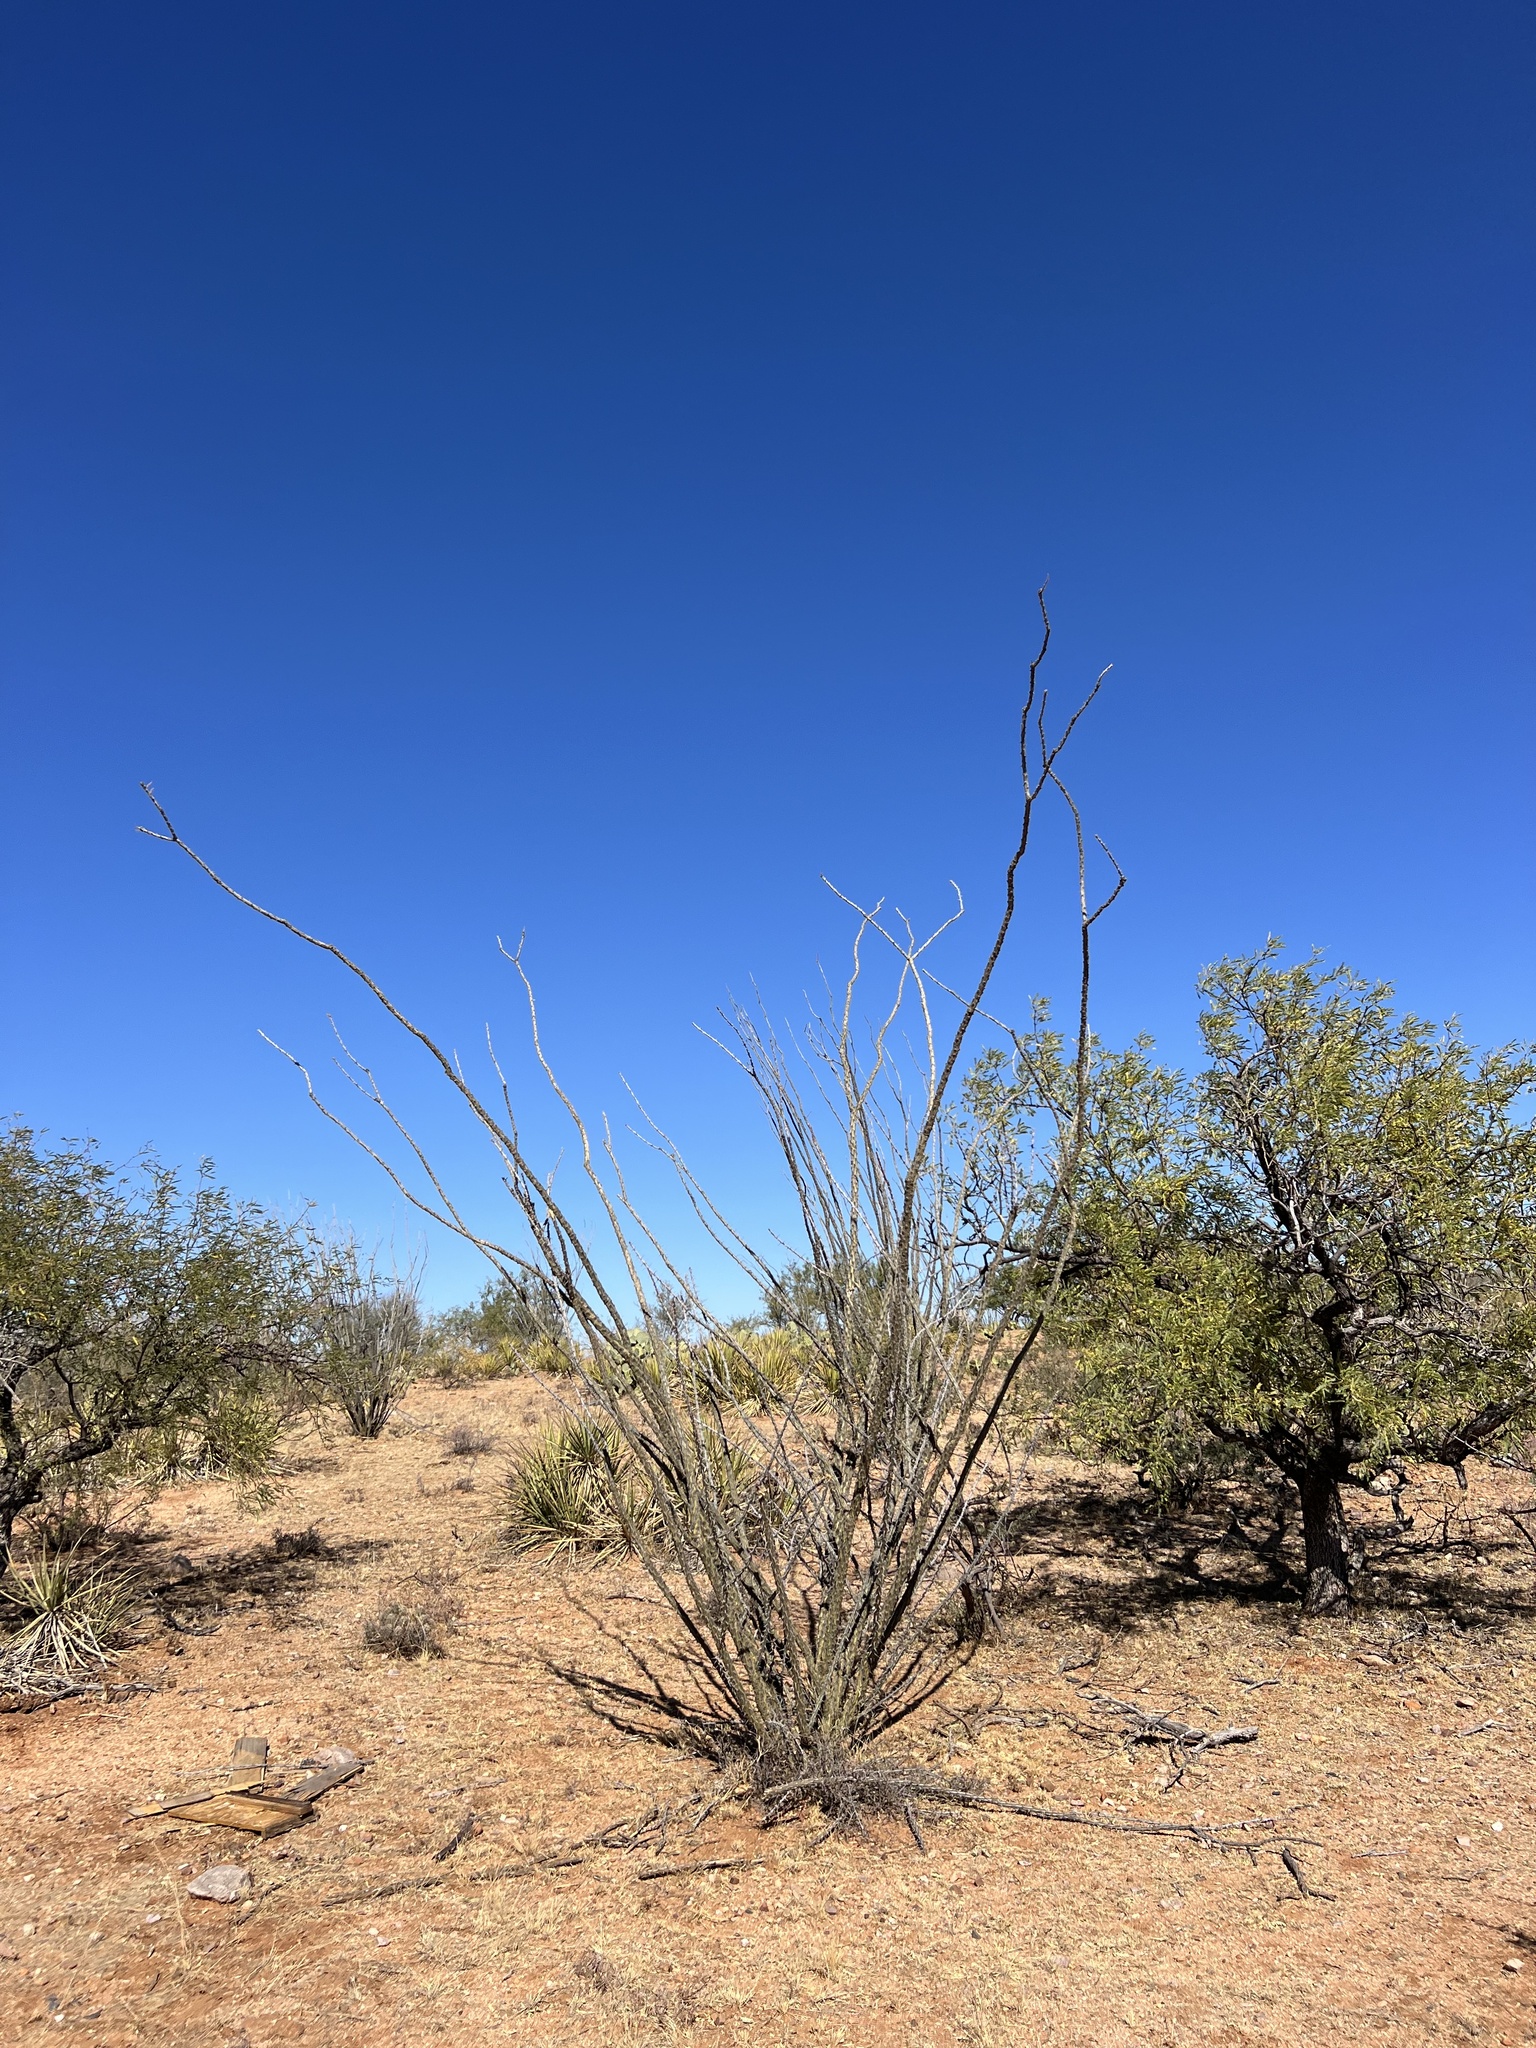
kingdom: Plantae
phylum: Tracheophyta
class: Magnoliopsida
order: Ericales
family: Fouquieriaceae
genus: Fouquieria
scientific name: Fouquieria splendens
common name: Vine-cactus
